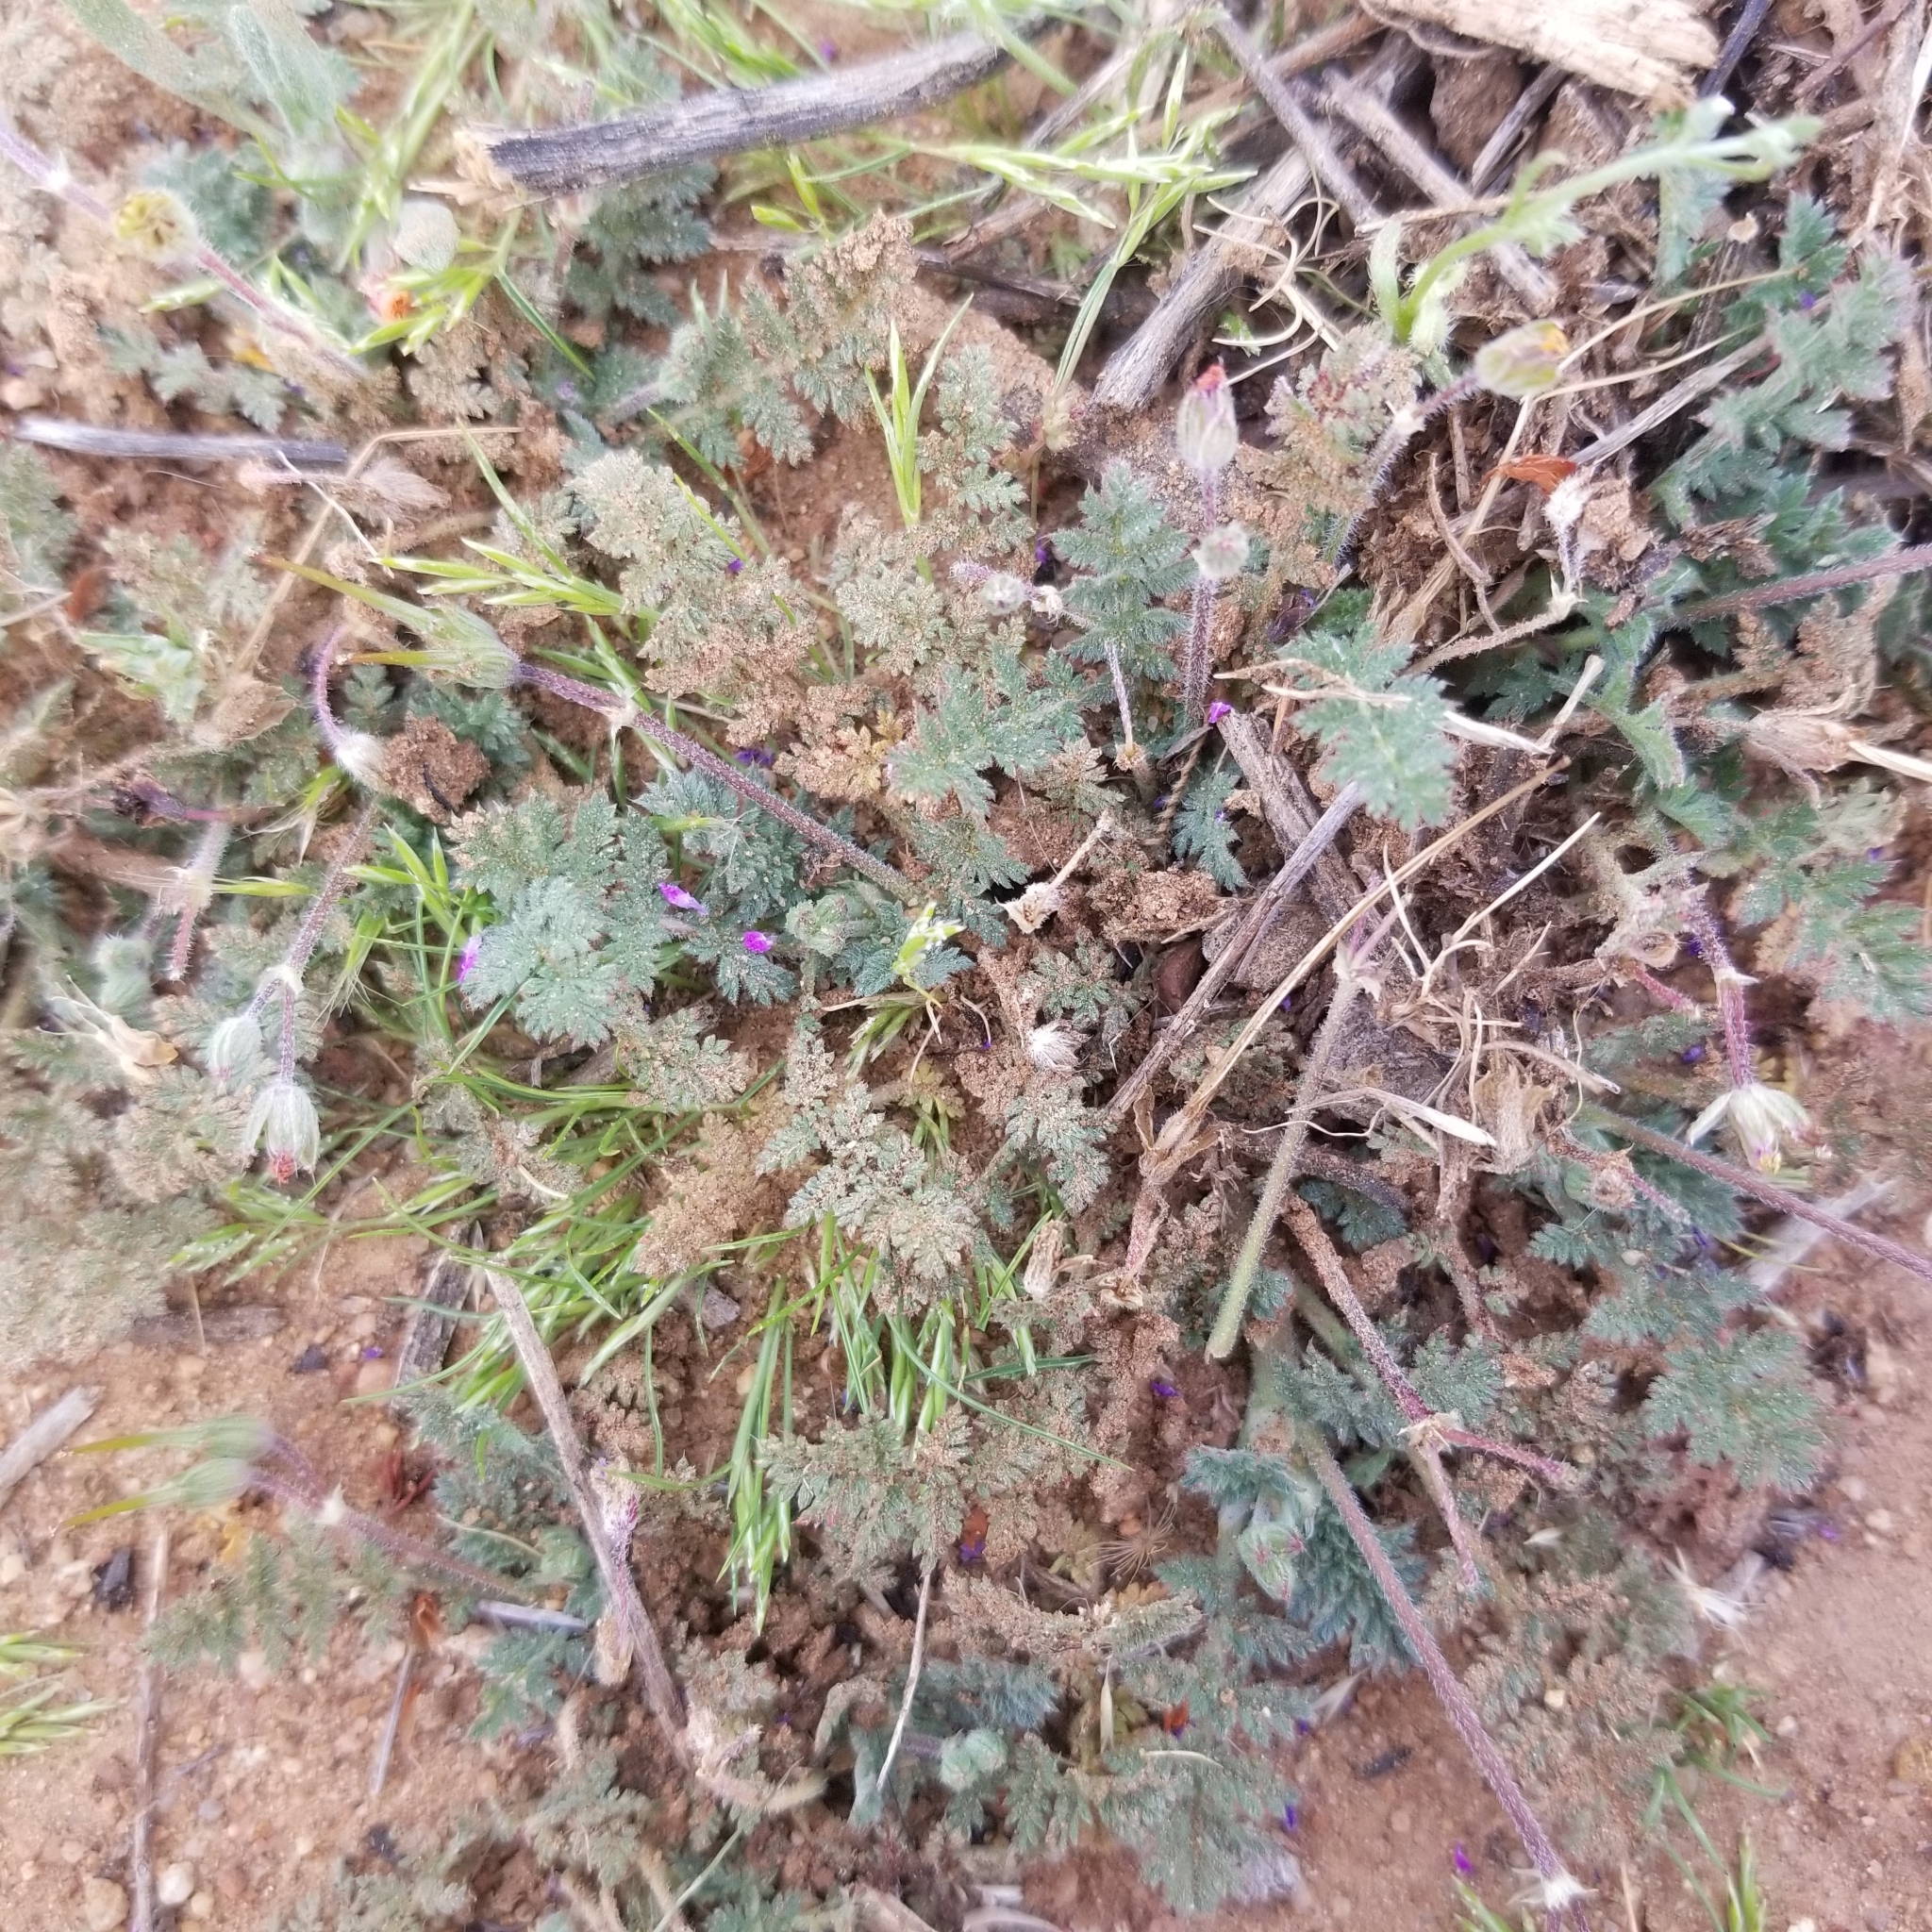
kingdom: Plantae
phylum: Tracheophyta
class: Magnoliopsida
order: Geraniales
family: Geraniaceae
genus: Erodium
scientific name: Erodium cicutarium
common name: Common stork's-bill
